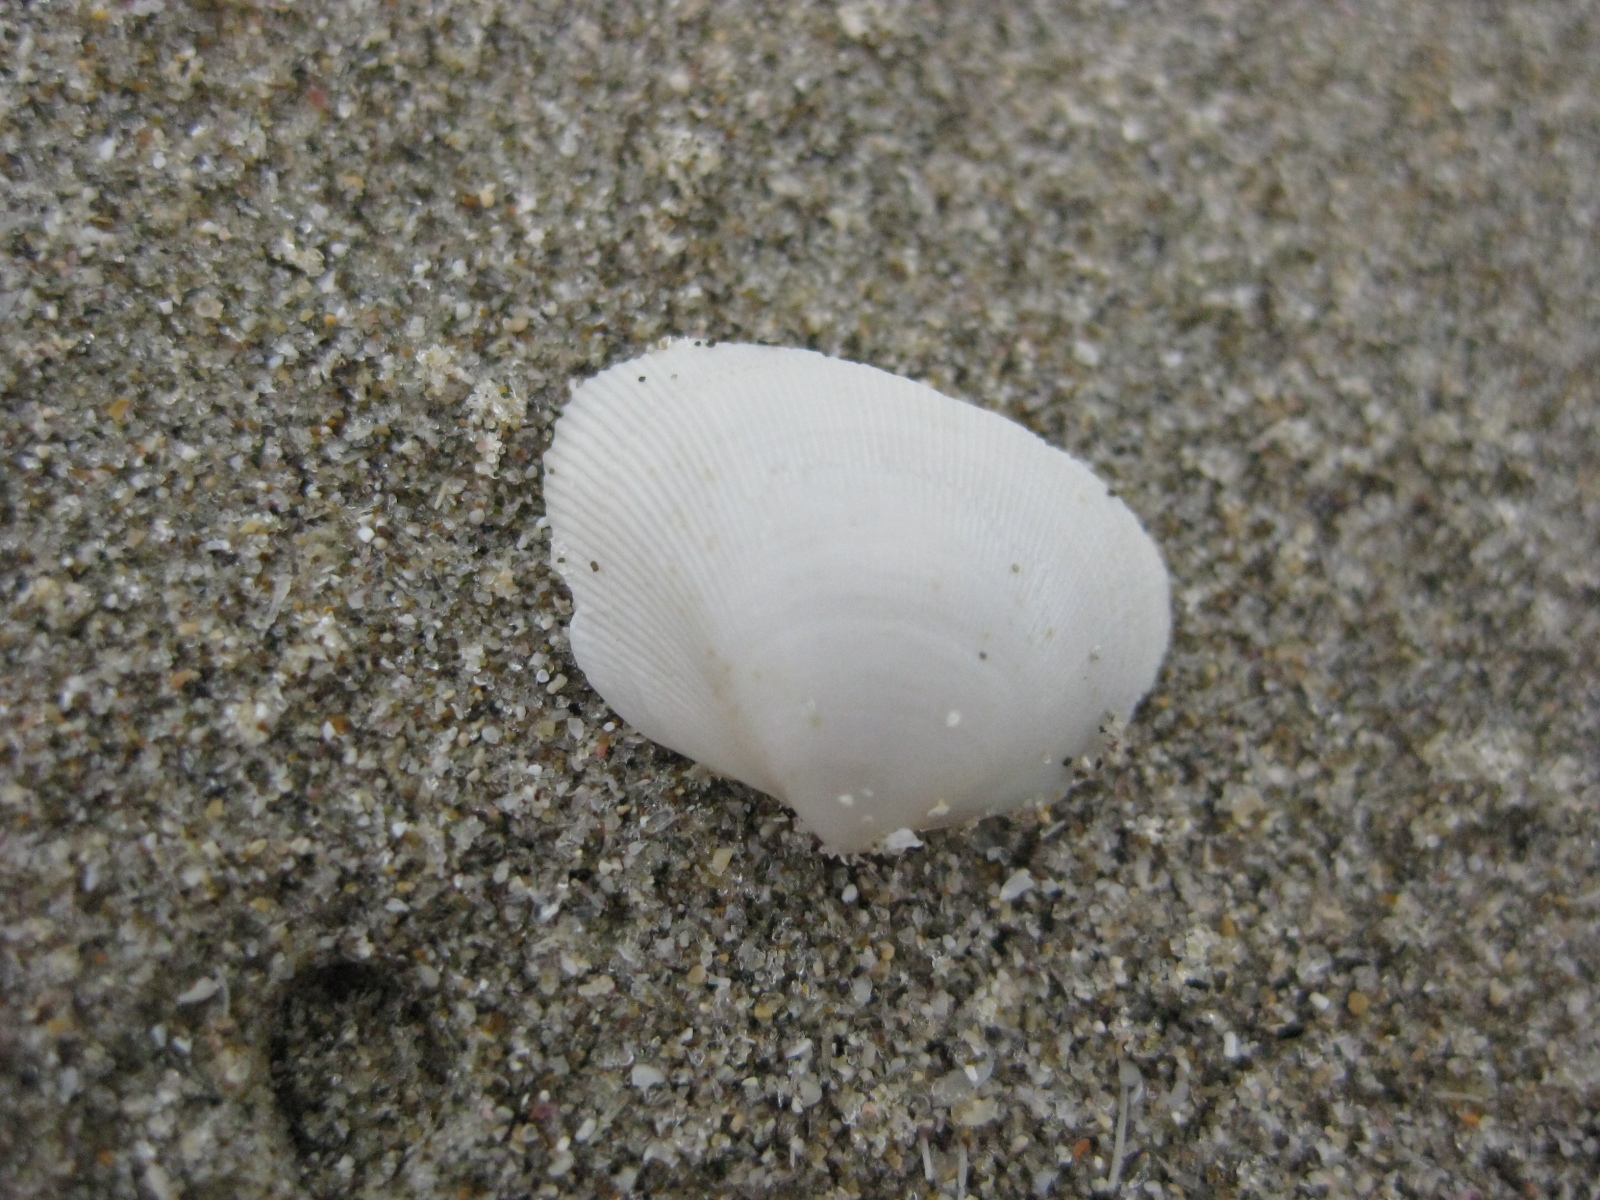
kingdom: Animalia
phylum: Mollusca
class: Bivalvia
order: Cardiida
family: Cardiidae
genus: Pratulum
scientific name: Pratulum pulchellum
